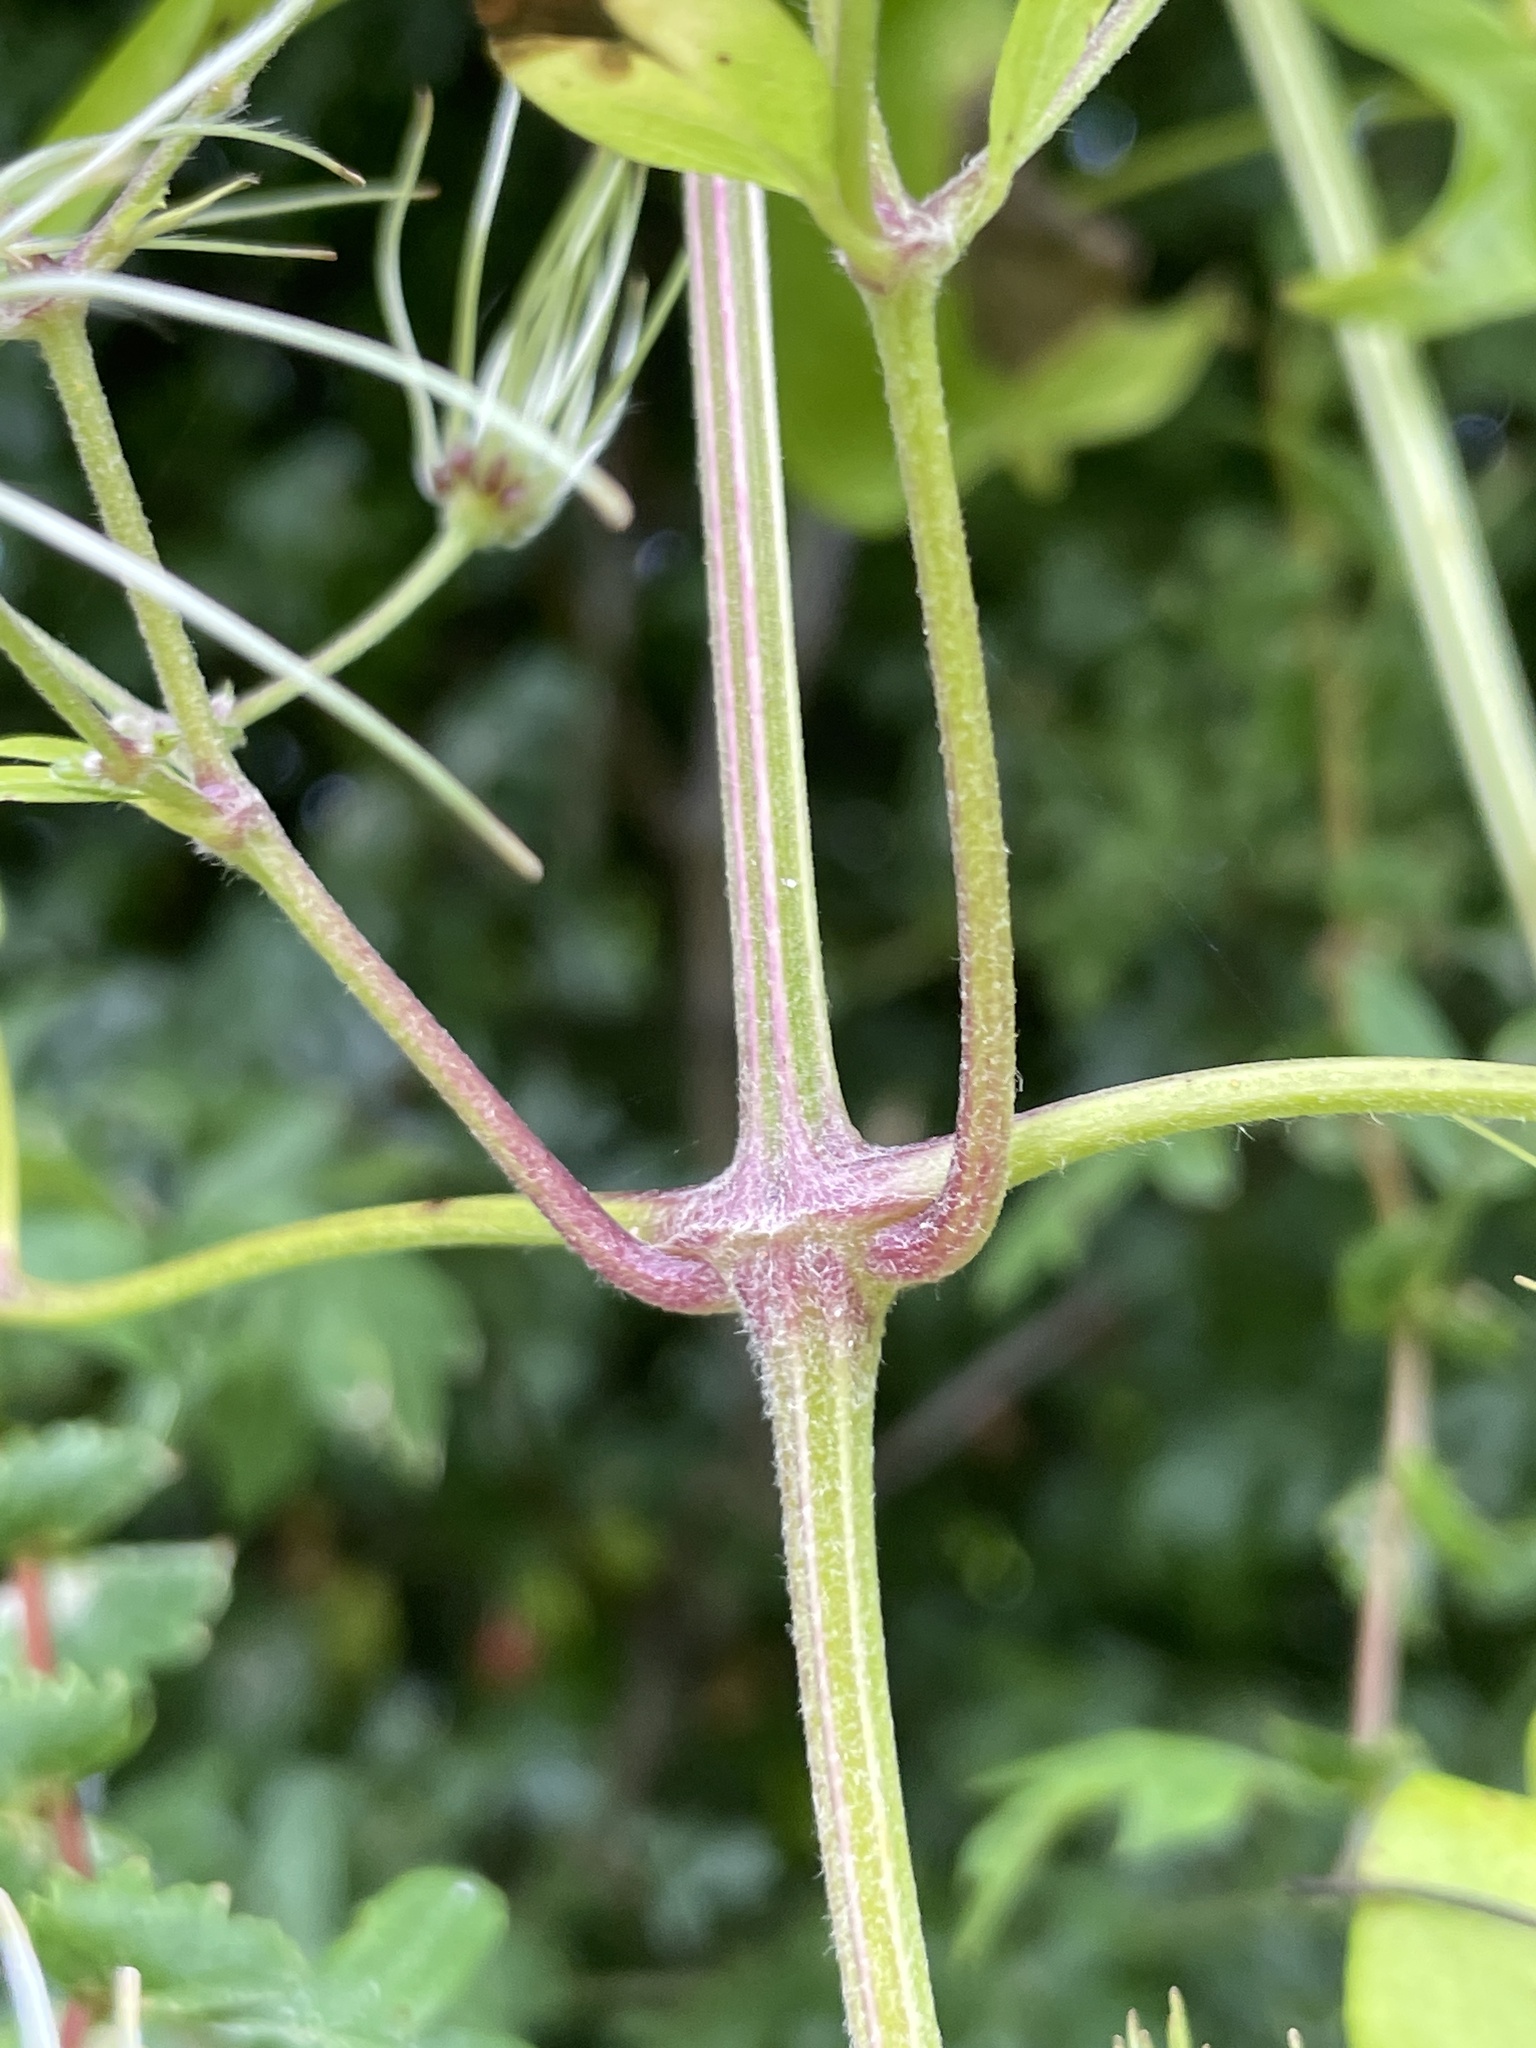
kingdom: Plantae
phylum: Tracheophyta
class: Magnoliopsida
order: Ranunculales
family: Ranunculaceae
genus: Clematis
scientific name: Clematis vitalba
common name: Evergreen clematis
